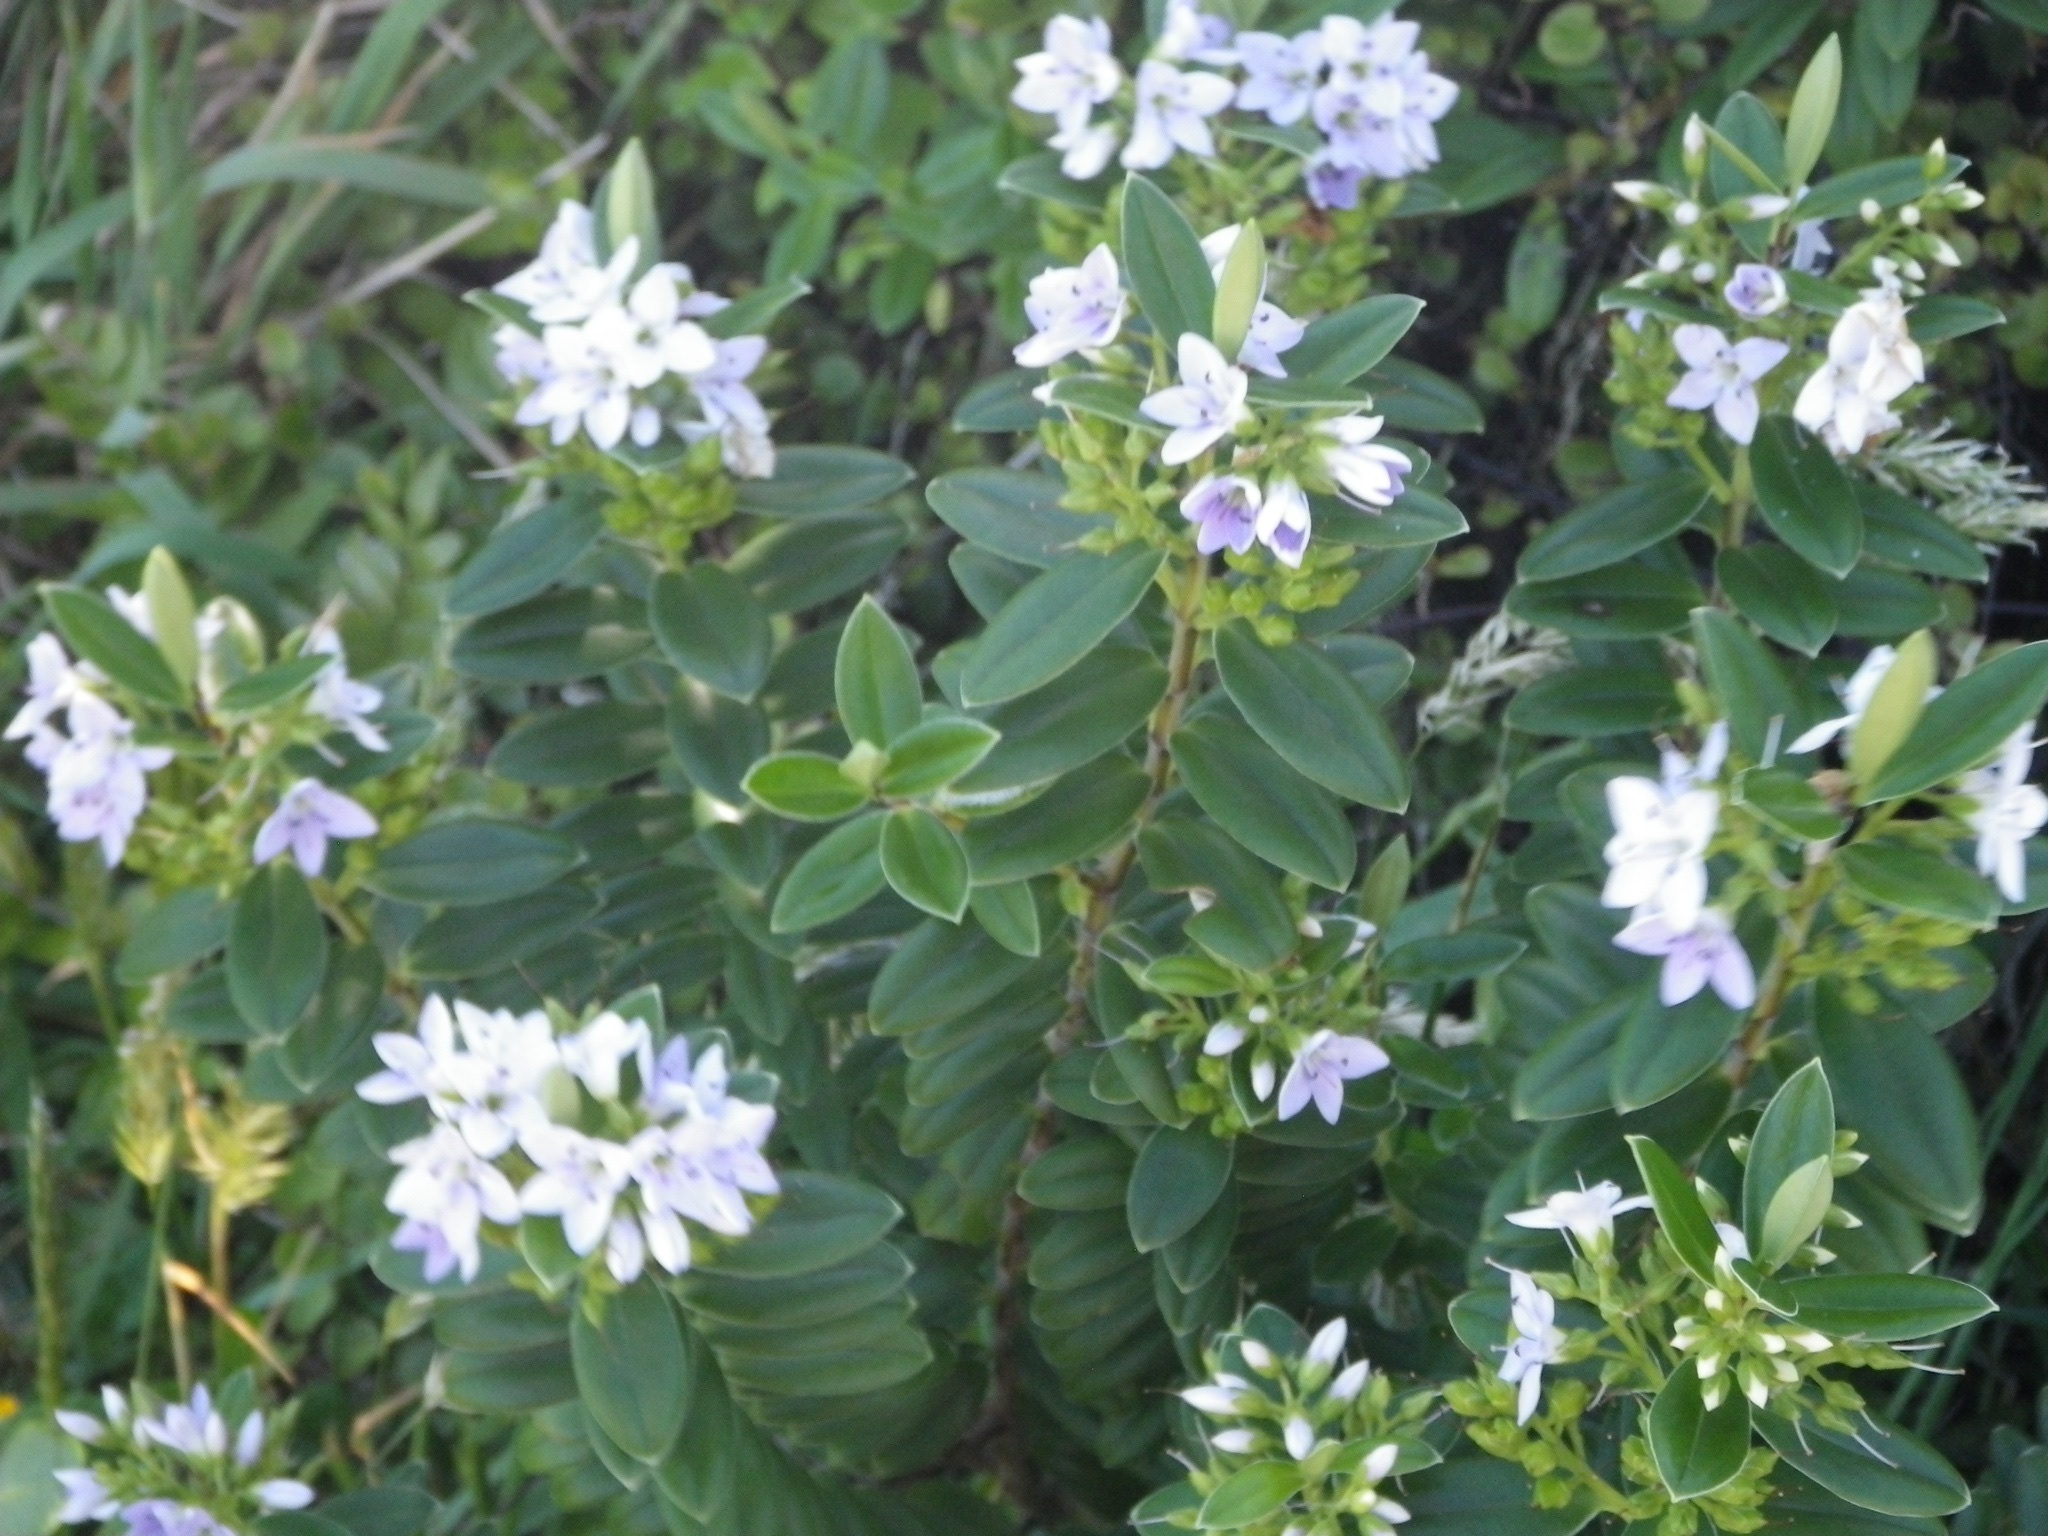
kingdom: Plantae
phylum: Tracheophyta
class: Magnoliopsida
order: Lamiales
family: Plantaginaceae
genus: Veronica
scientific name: Veronica elliptica
